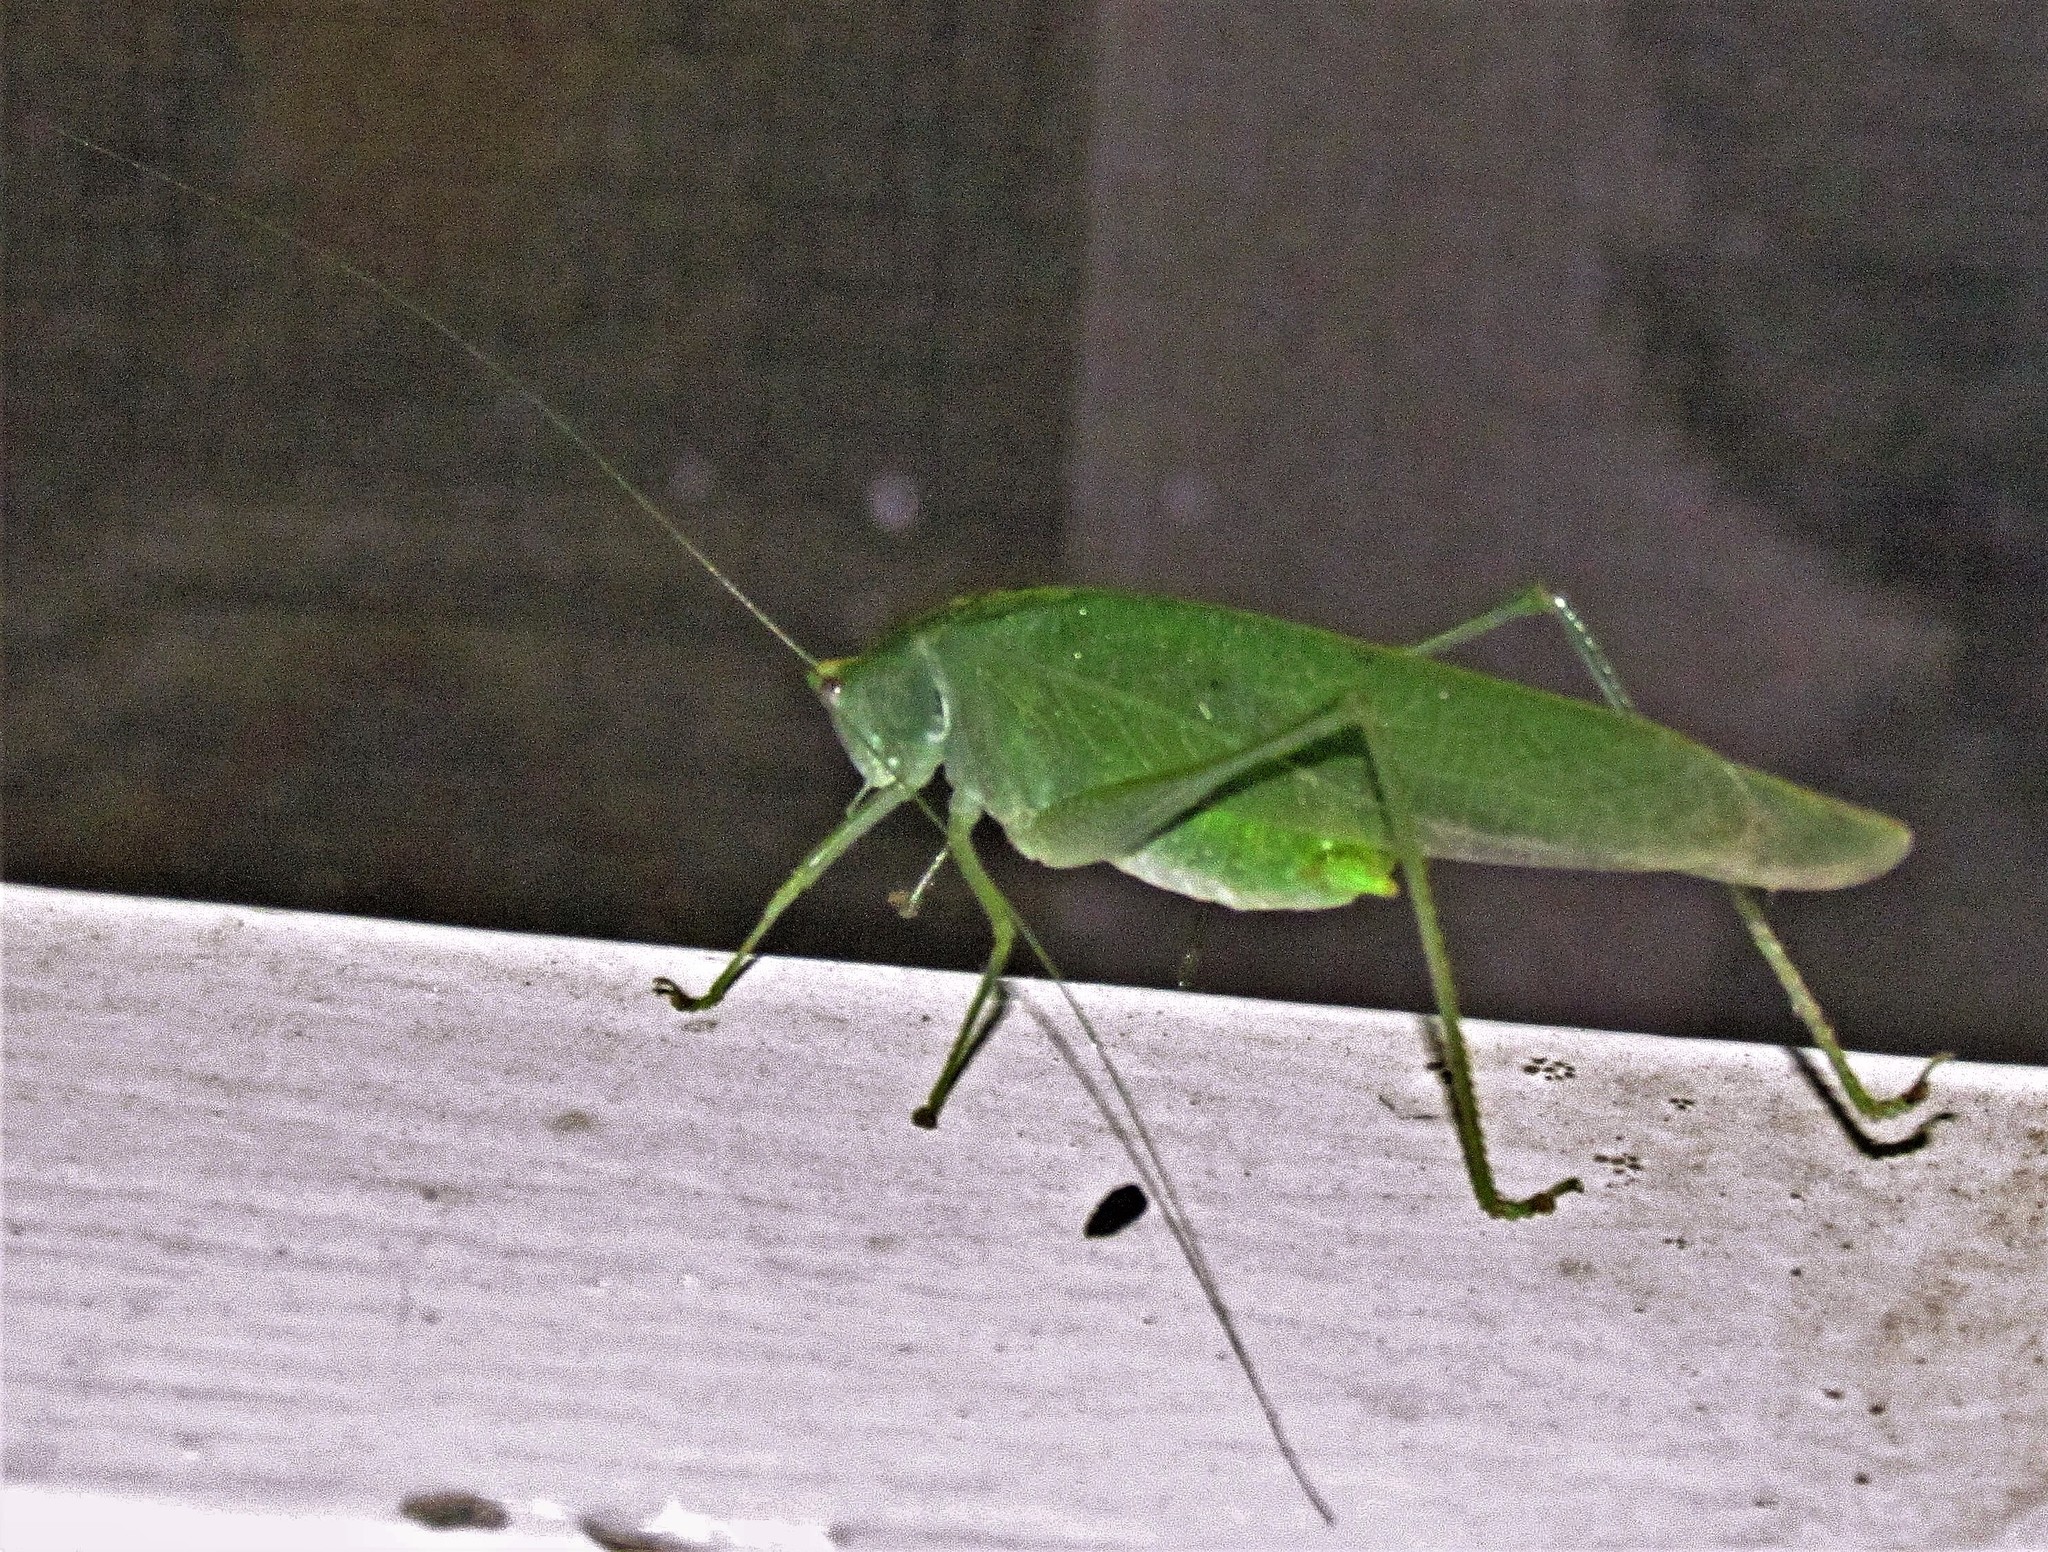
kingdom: Animalia
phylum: Arthropoda
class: Insecta
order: Orthoptera
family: Tettigoniidae
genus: Grammadera
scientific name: Grammadera clara
